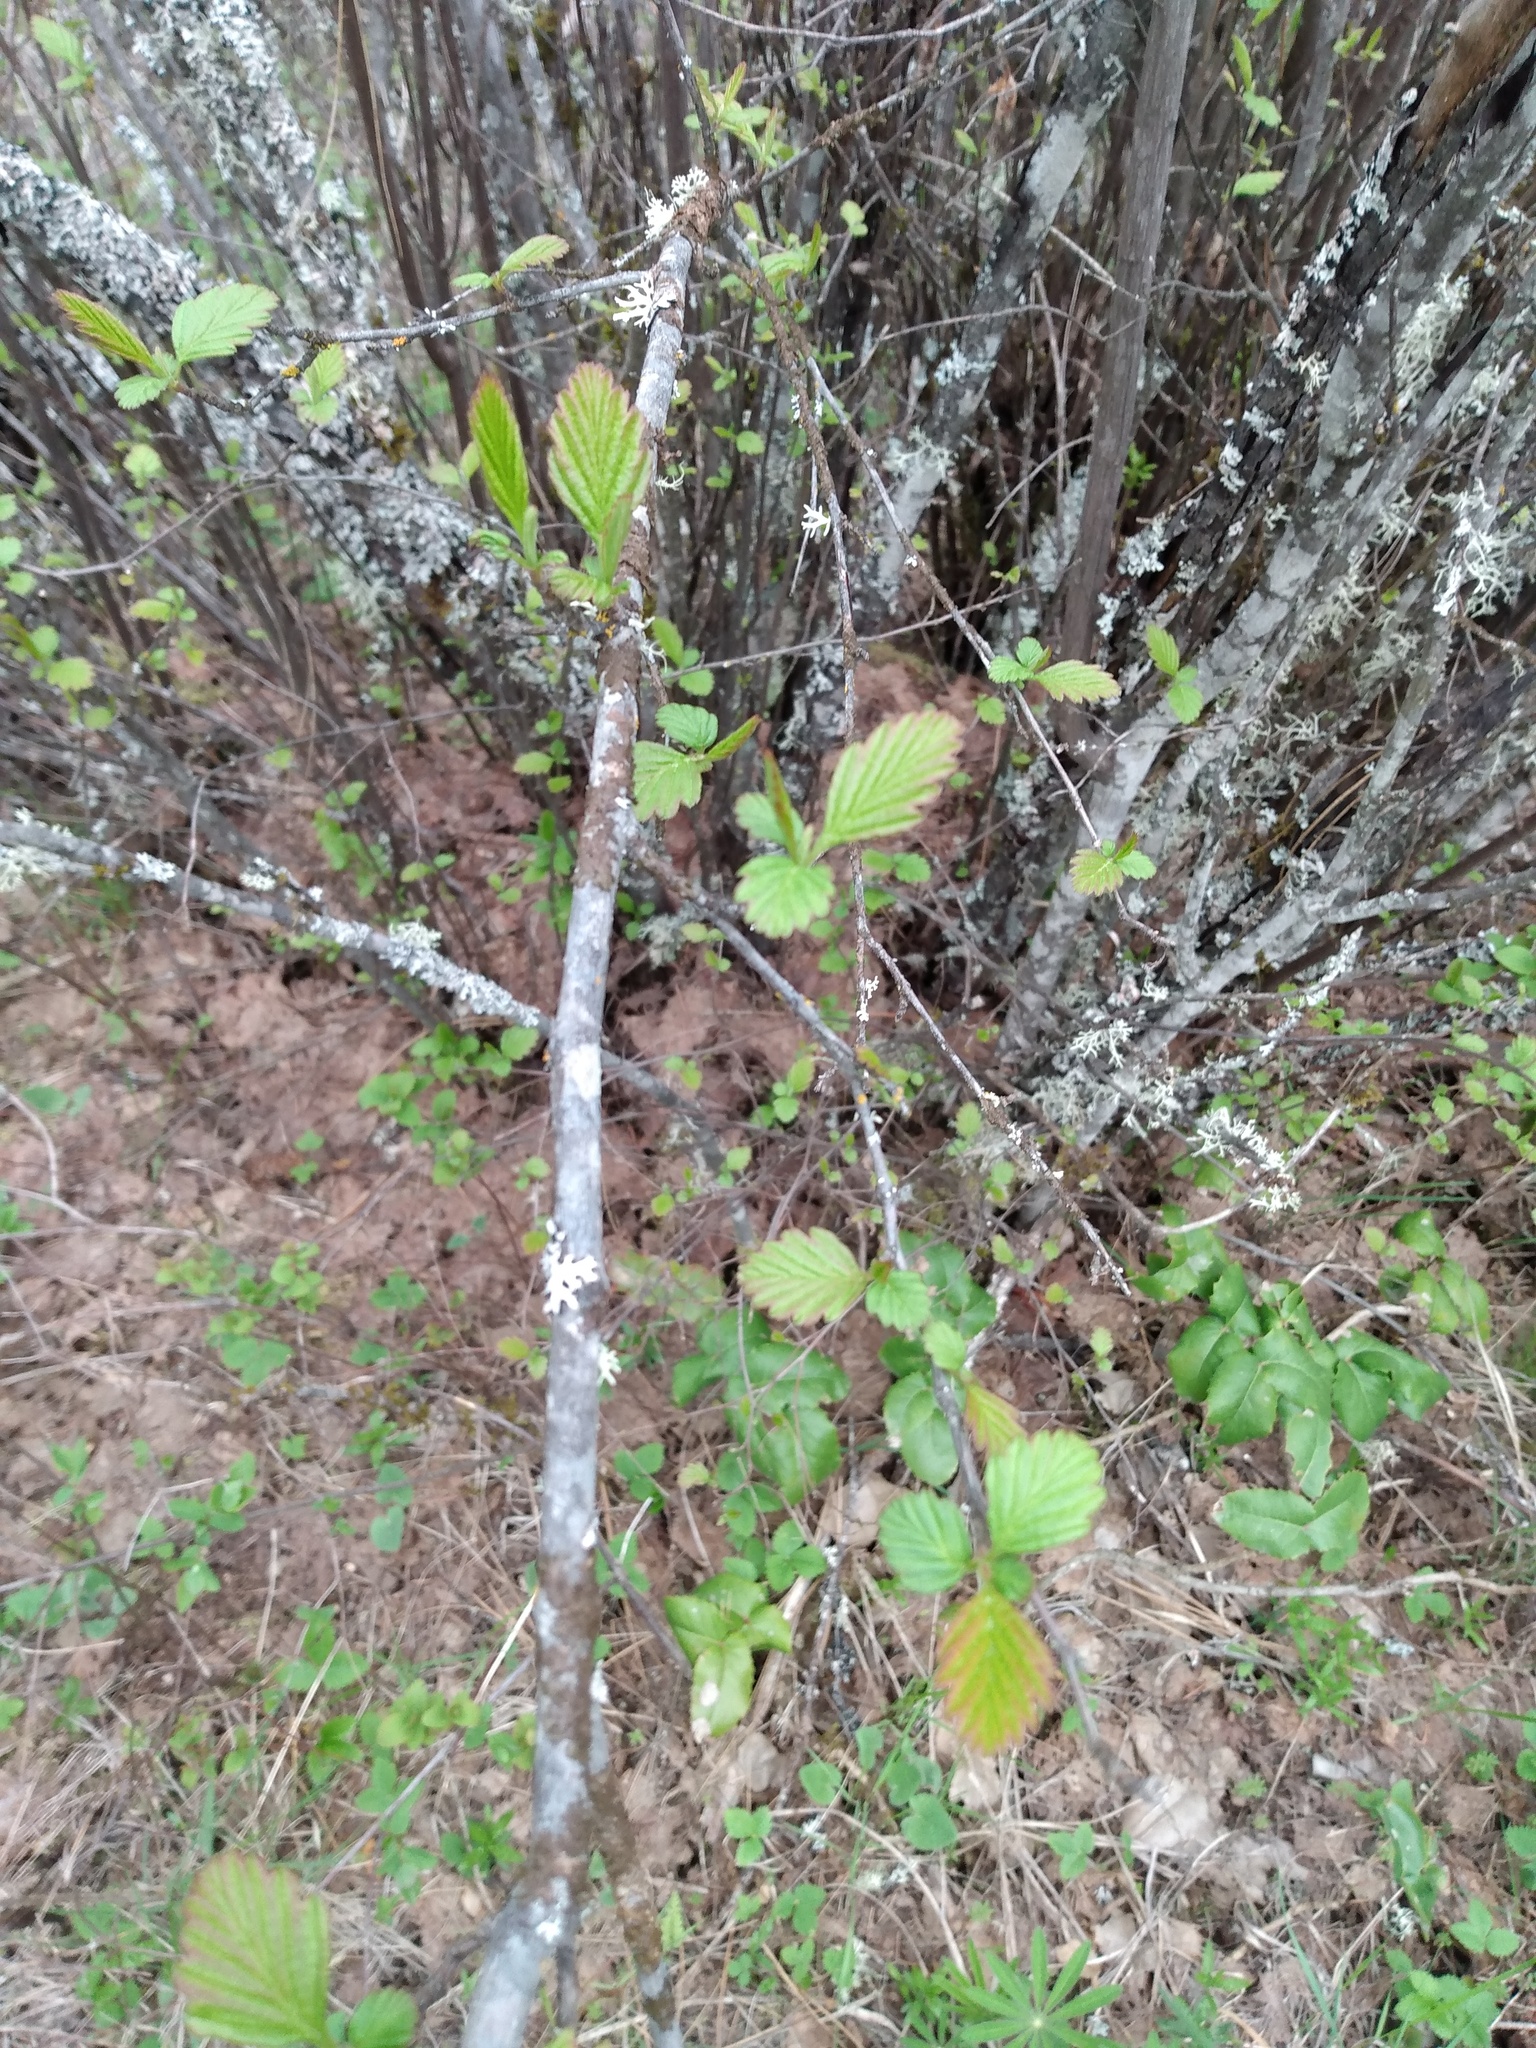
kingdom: Plantae
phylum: Tracheophyta
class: Magnoliopsida
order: Rosales
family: Rosaceae
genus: Holodiscus
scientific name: Holodiscus discolor
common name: Oceanspray
